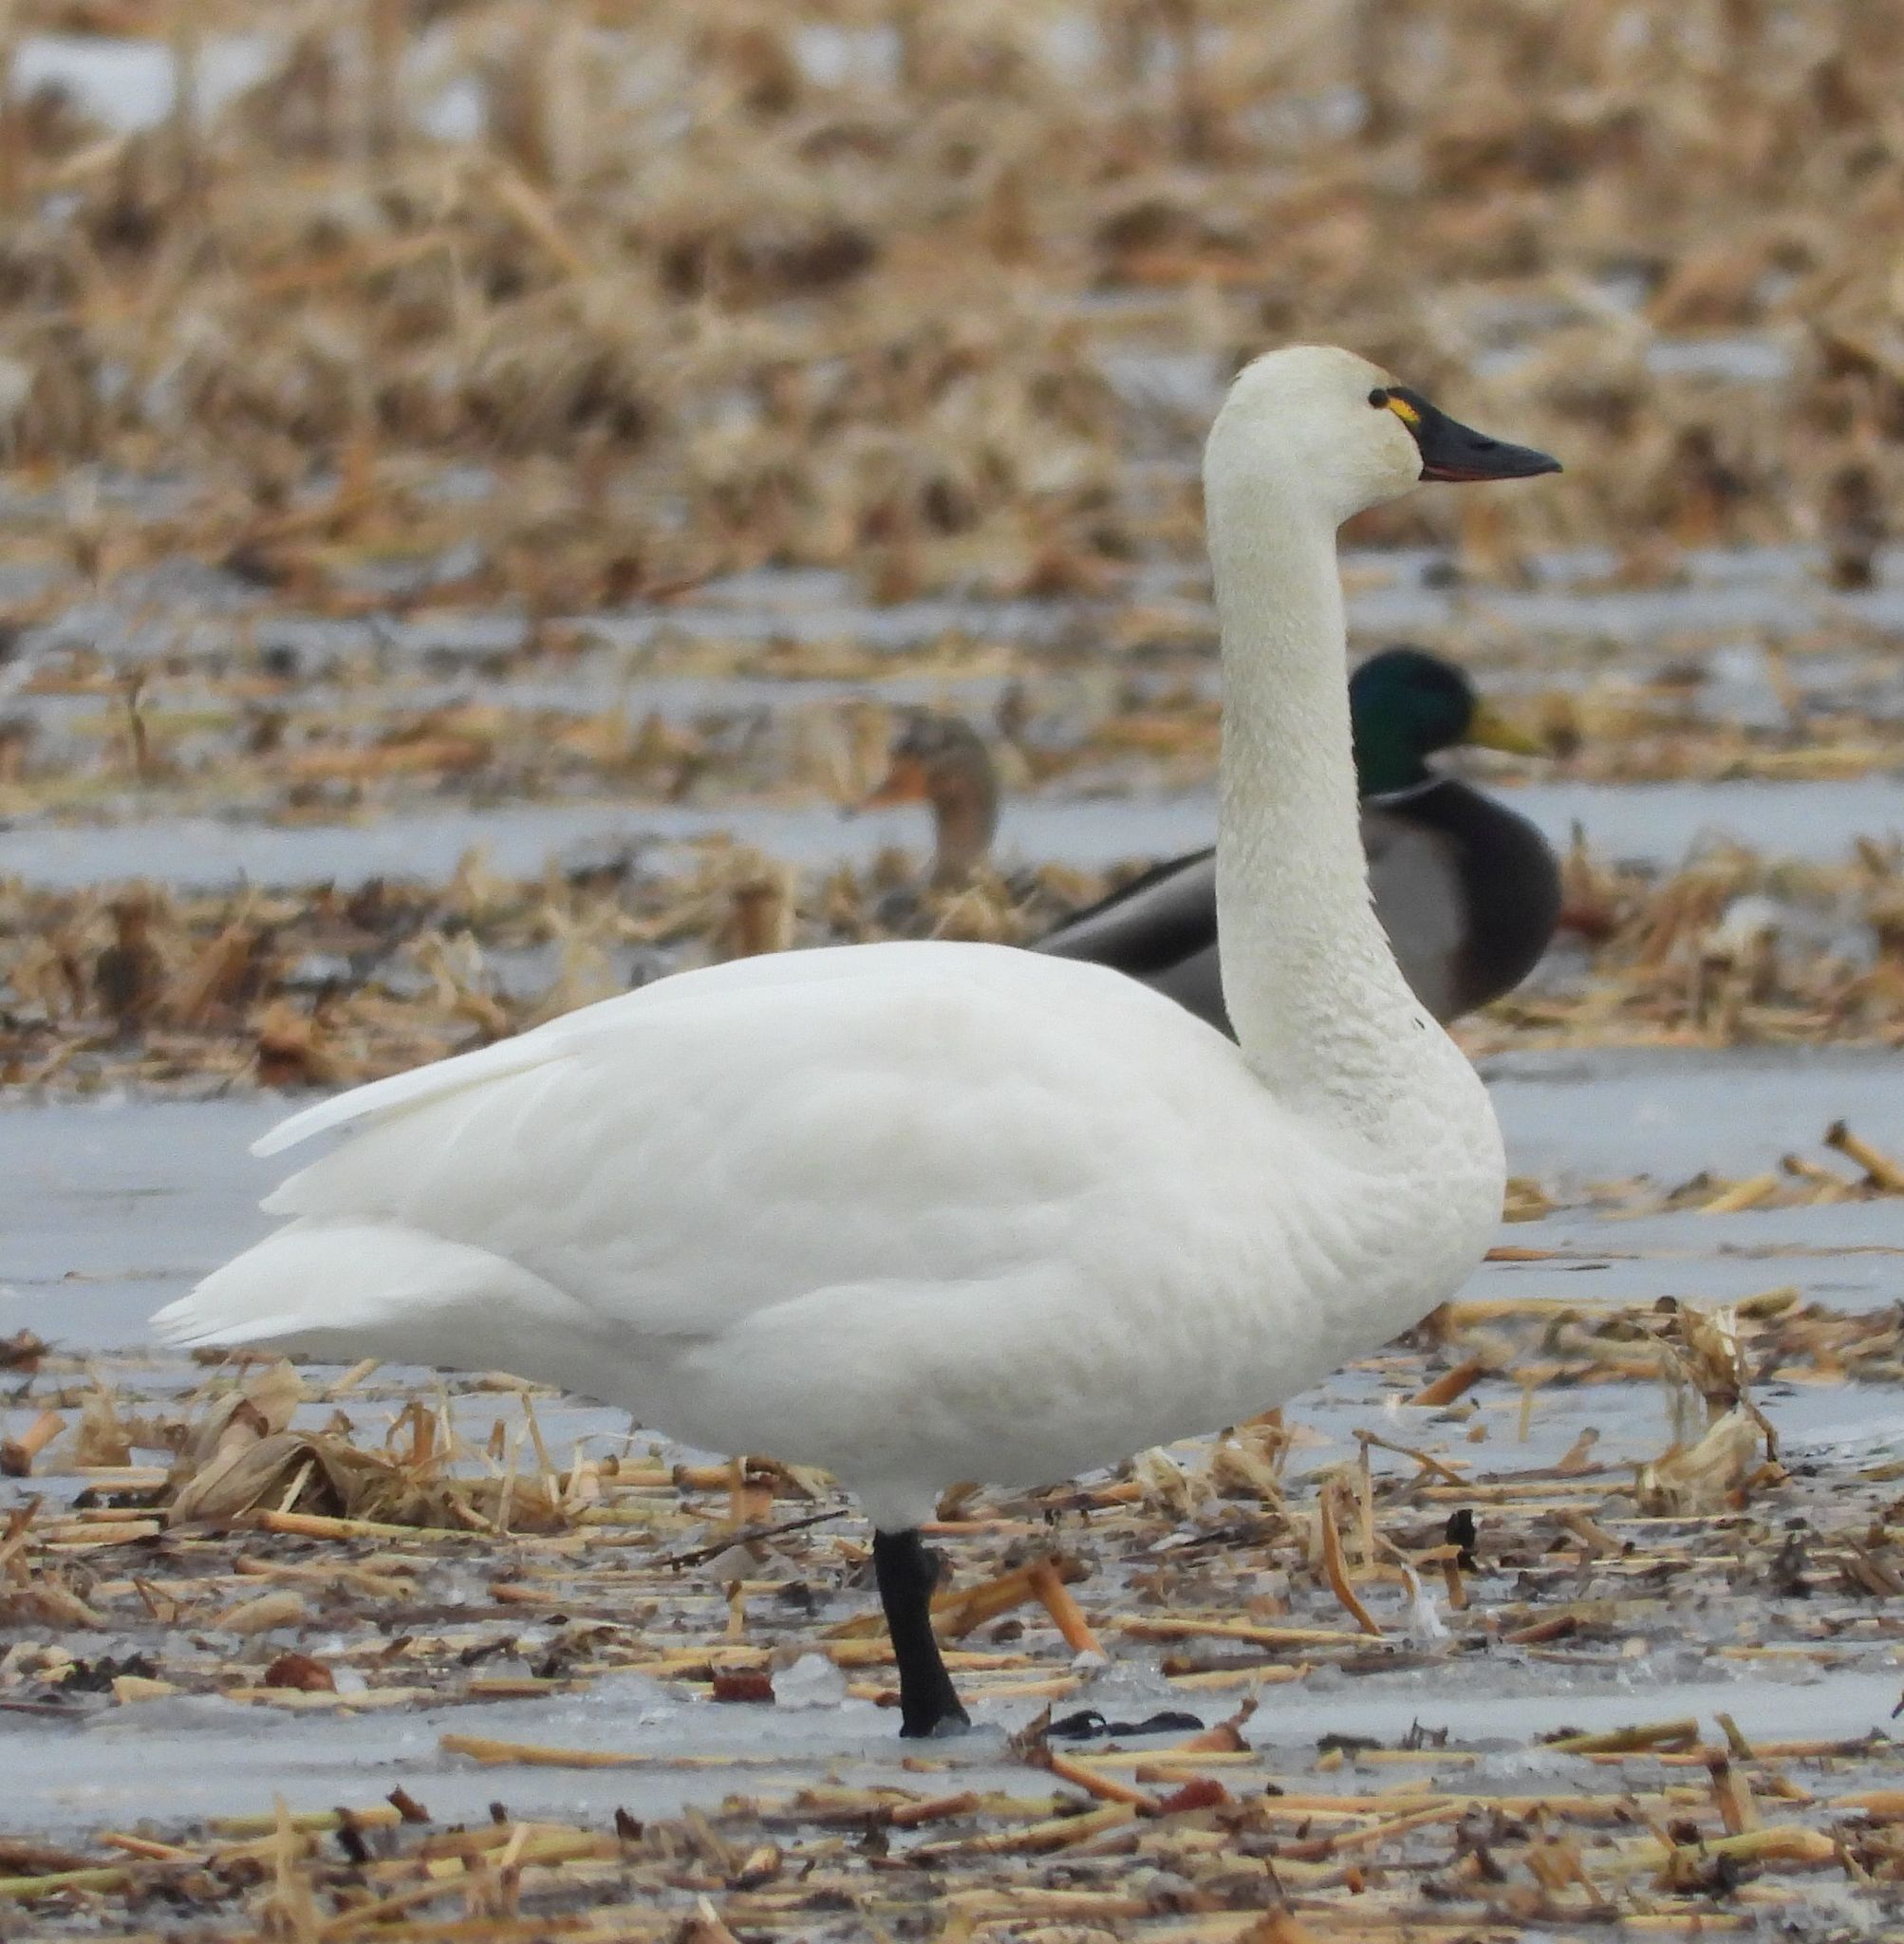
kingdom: Animalia
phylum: Chordata
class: Aves
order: Anseriformes
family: Anatidae
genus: Cygnus
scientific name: Cygnus columbianus
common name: Tundra swan
